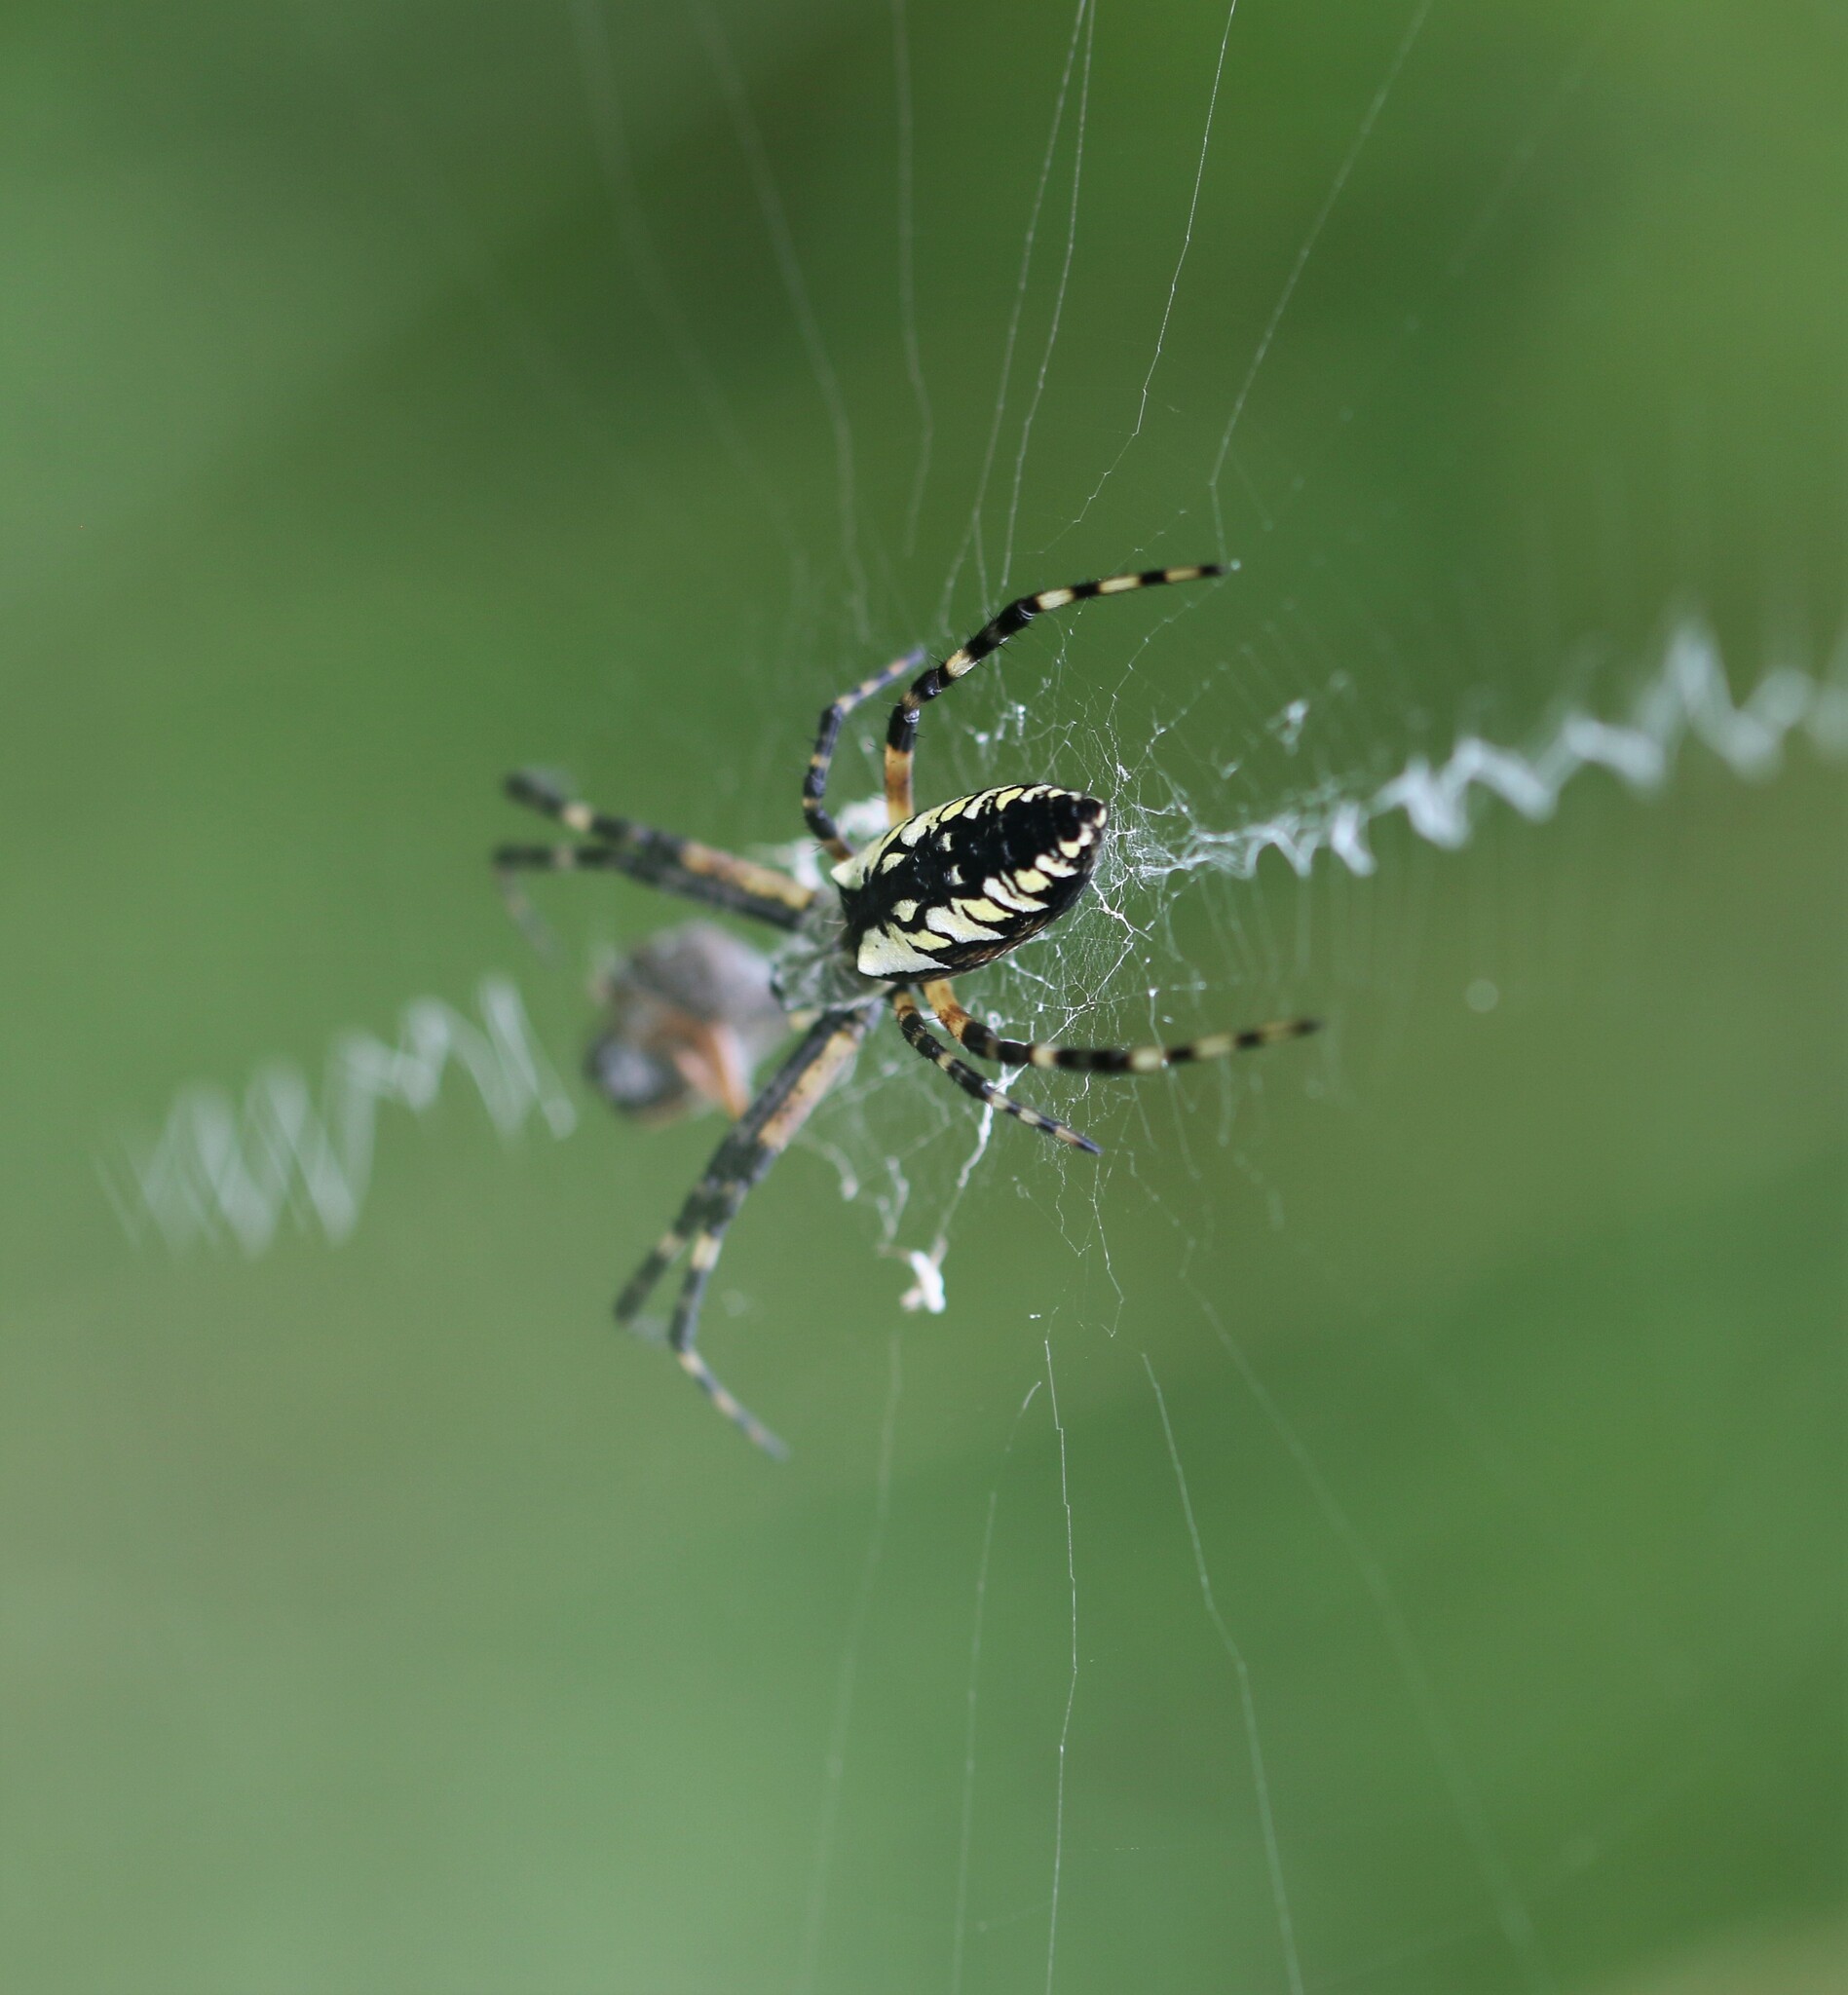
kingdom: Animalia
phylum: Arthropoda
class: Arachnida
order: Araneae
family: Araneidae
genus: Argiope
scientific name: Argiope aurantia
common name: Orb weavers
